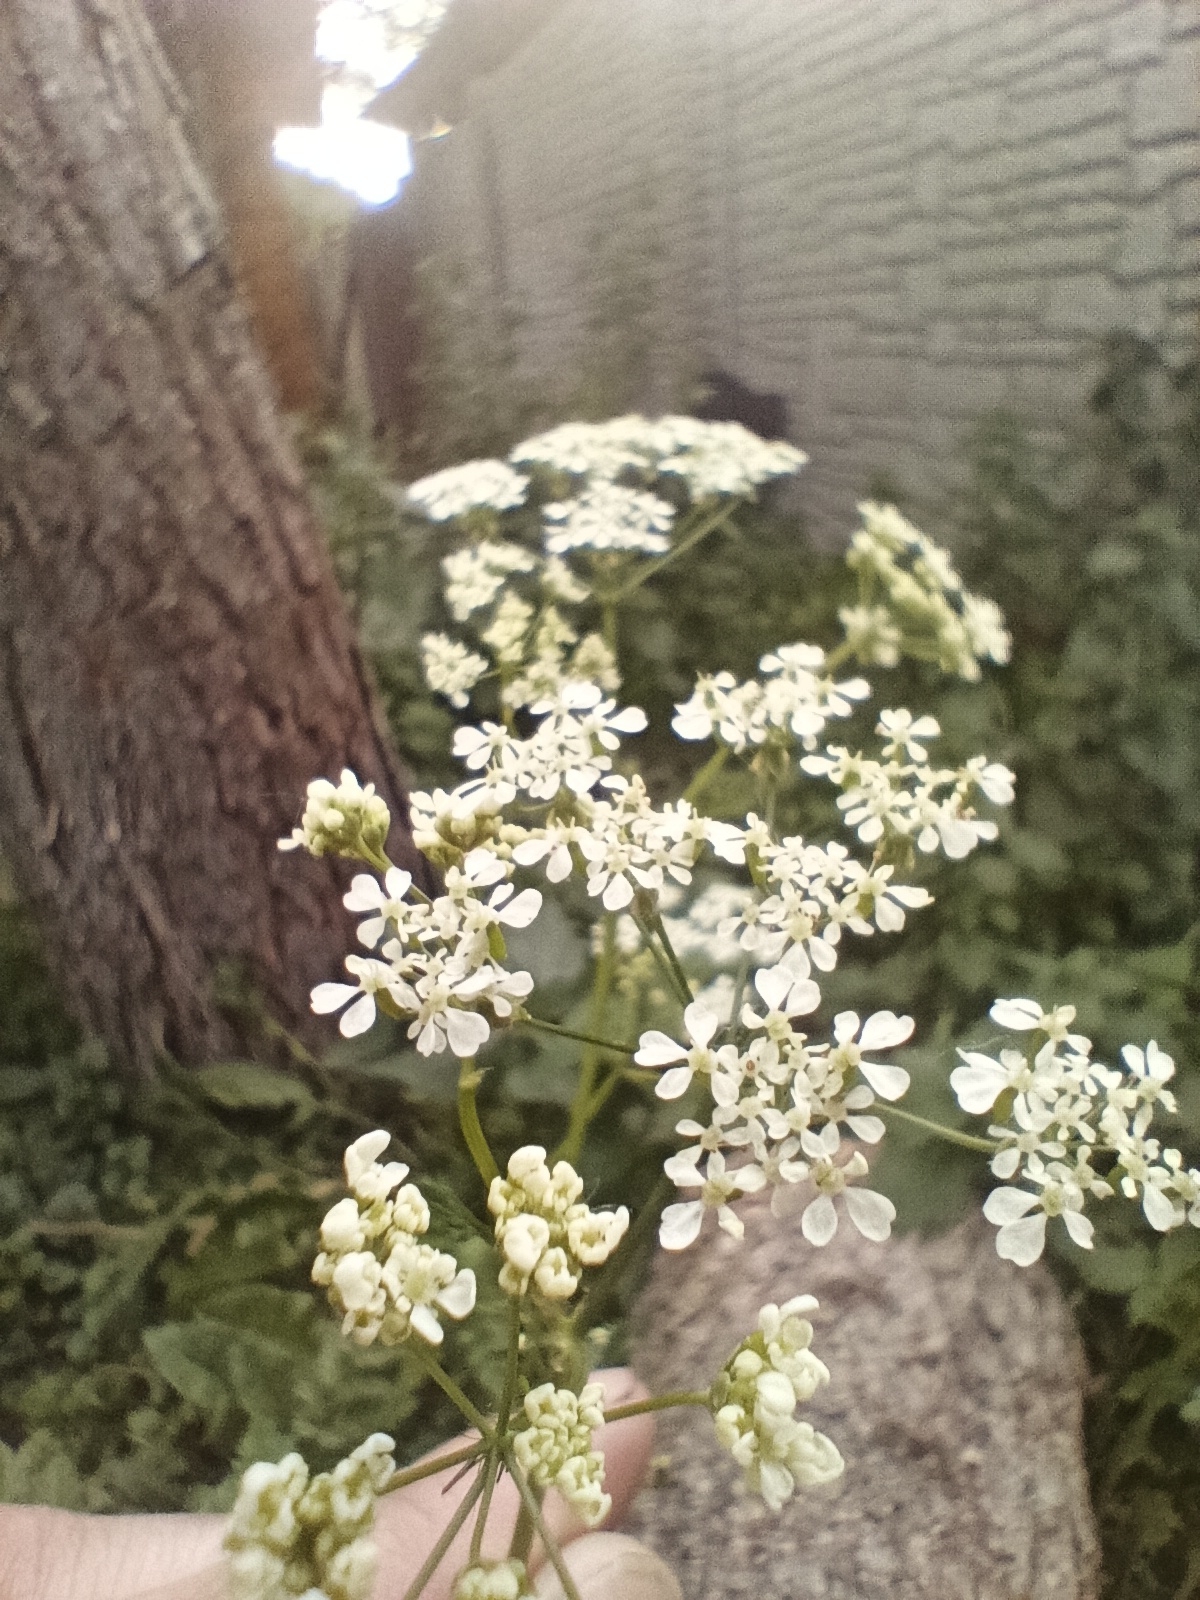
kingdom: Plantae
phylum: Tracheophyta
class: Magnoliopsida
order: Apiales
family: Apiaceae
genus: Anthriscus
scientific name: Anthriscus sylvestris
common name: Cow parsley
